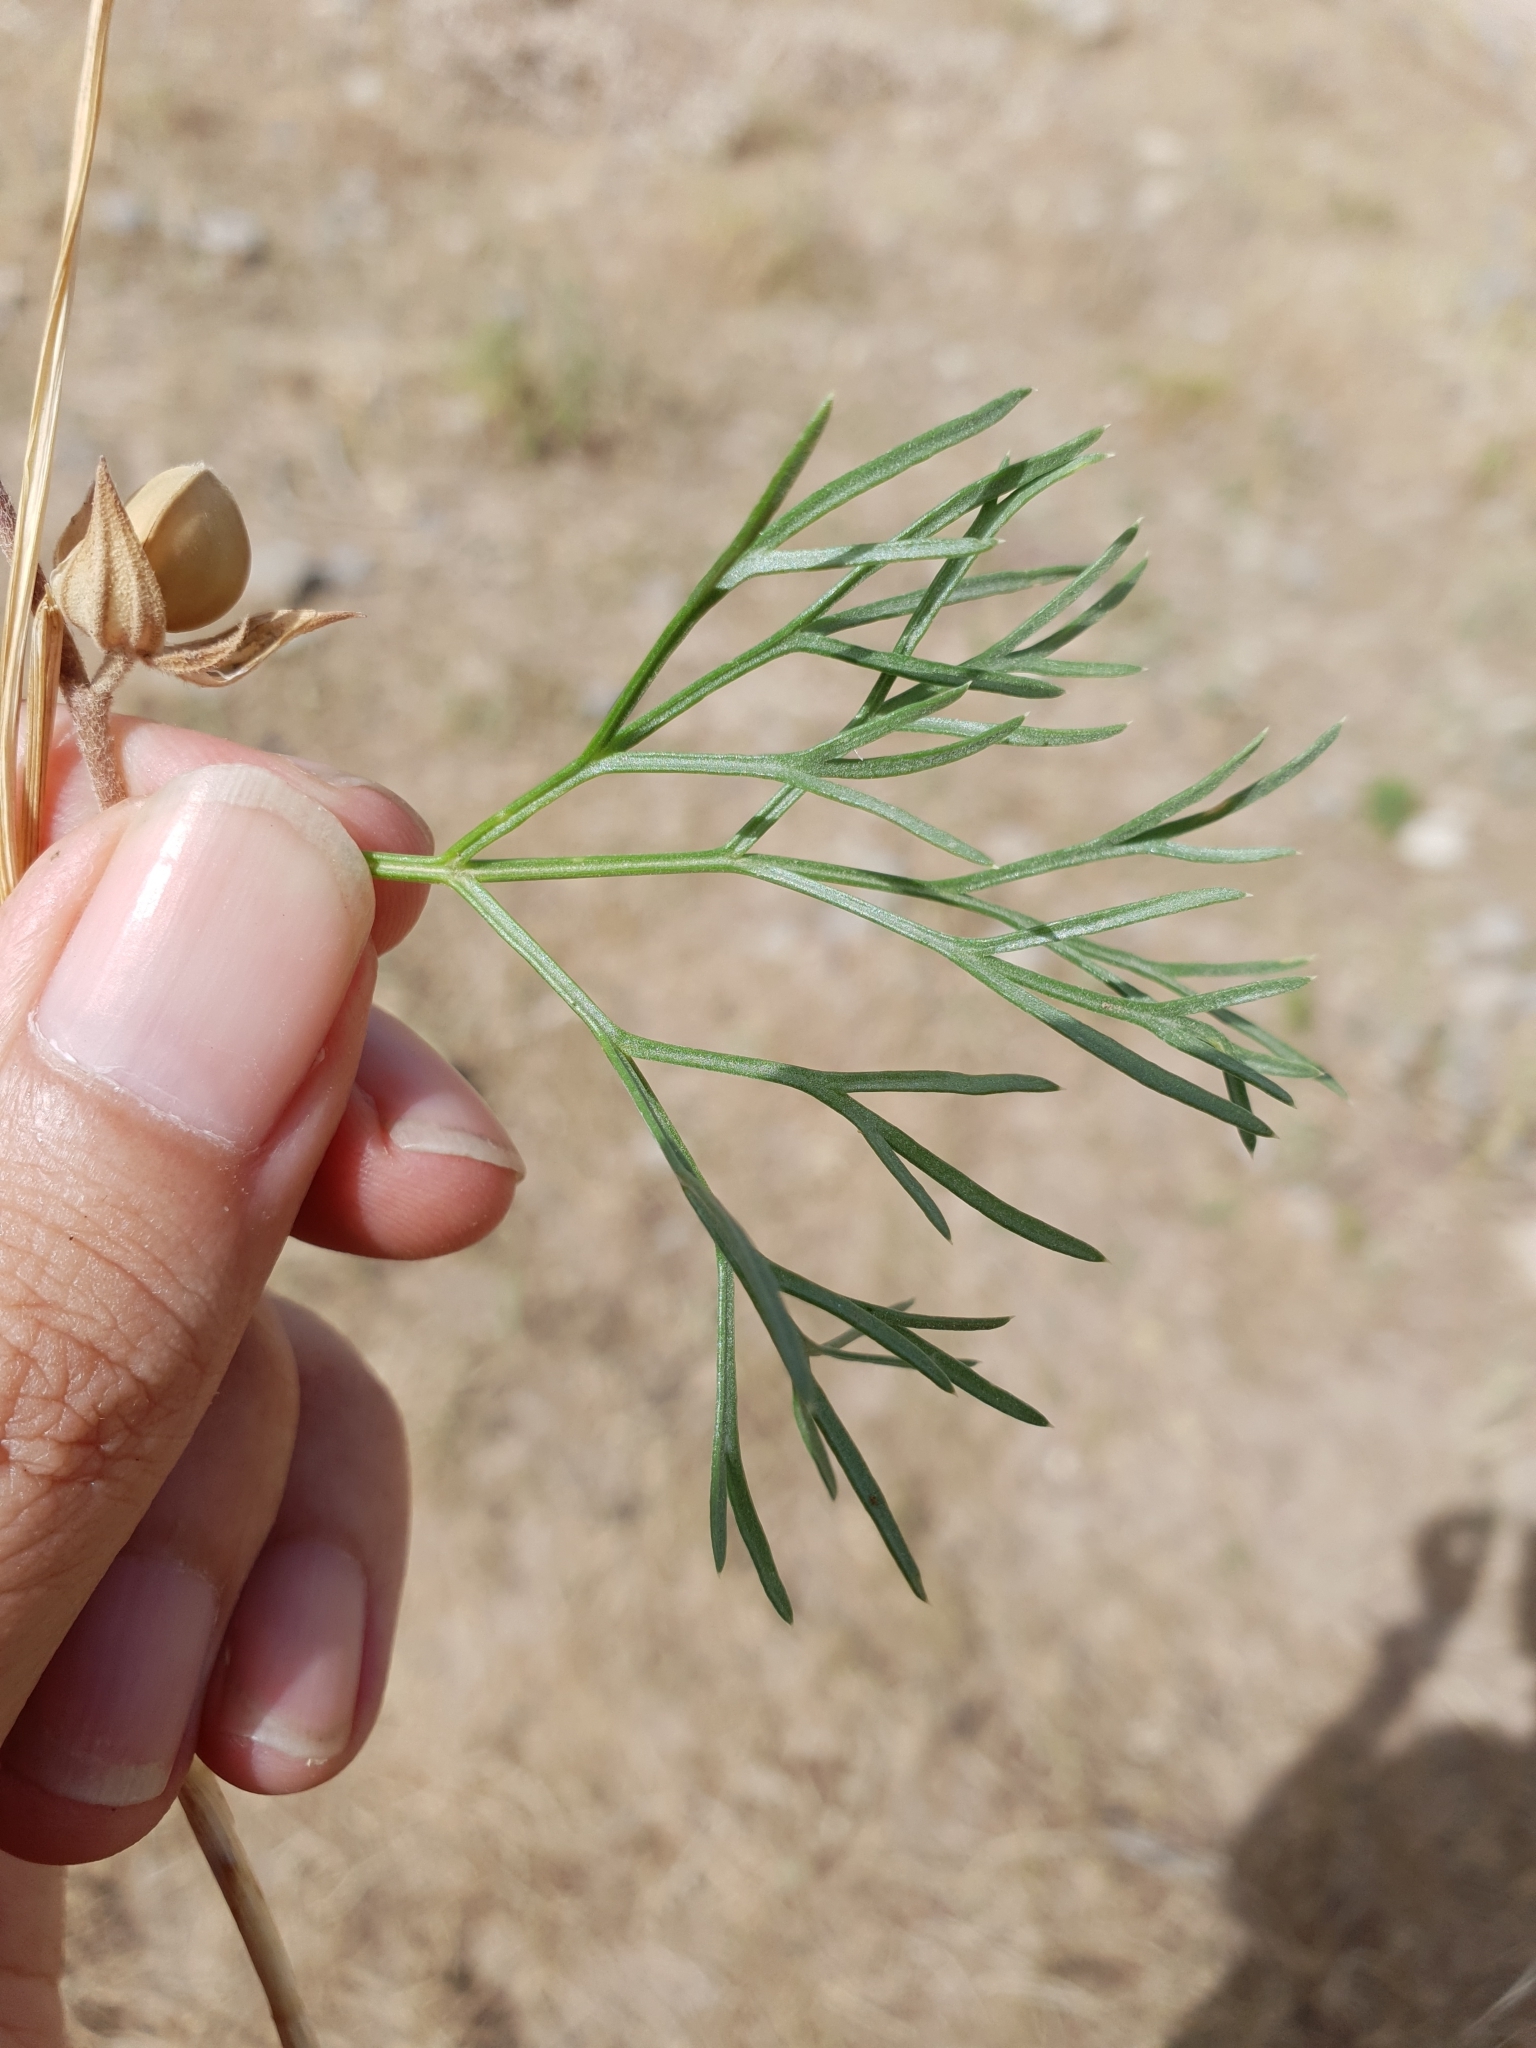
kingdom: Plantae
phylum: Tracheophyta
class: Magnoliopsida
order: Apiales
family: Apiaceae
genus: Visnaga
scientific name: Visnaga daucoides
